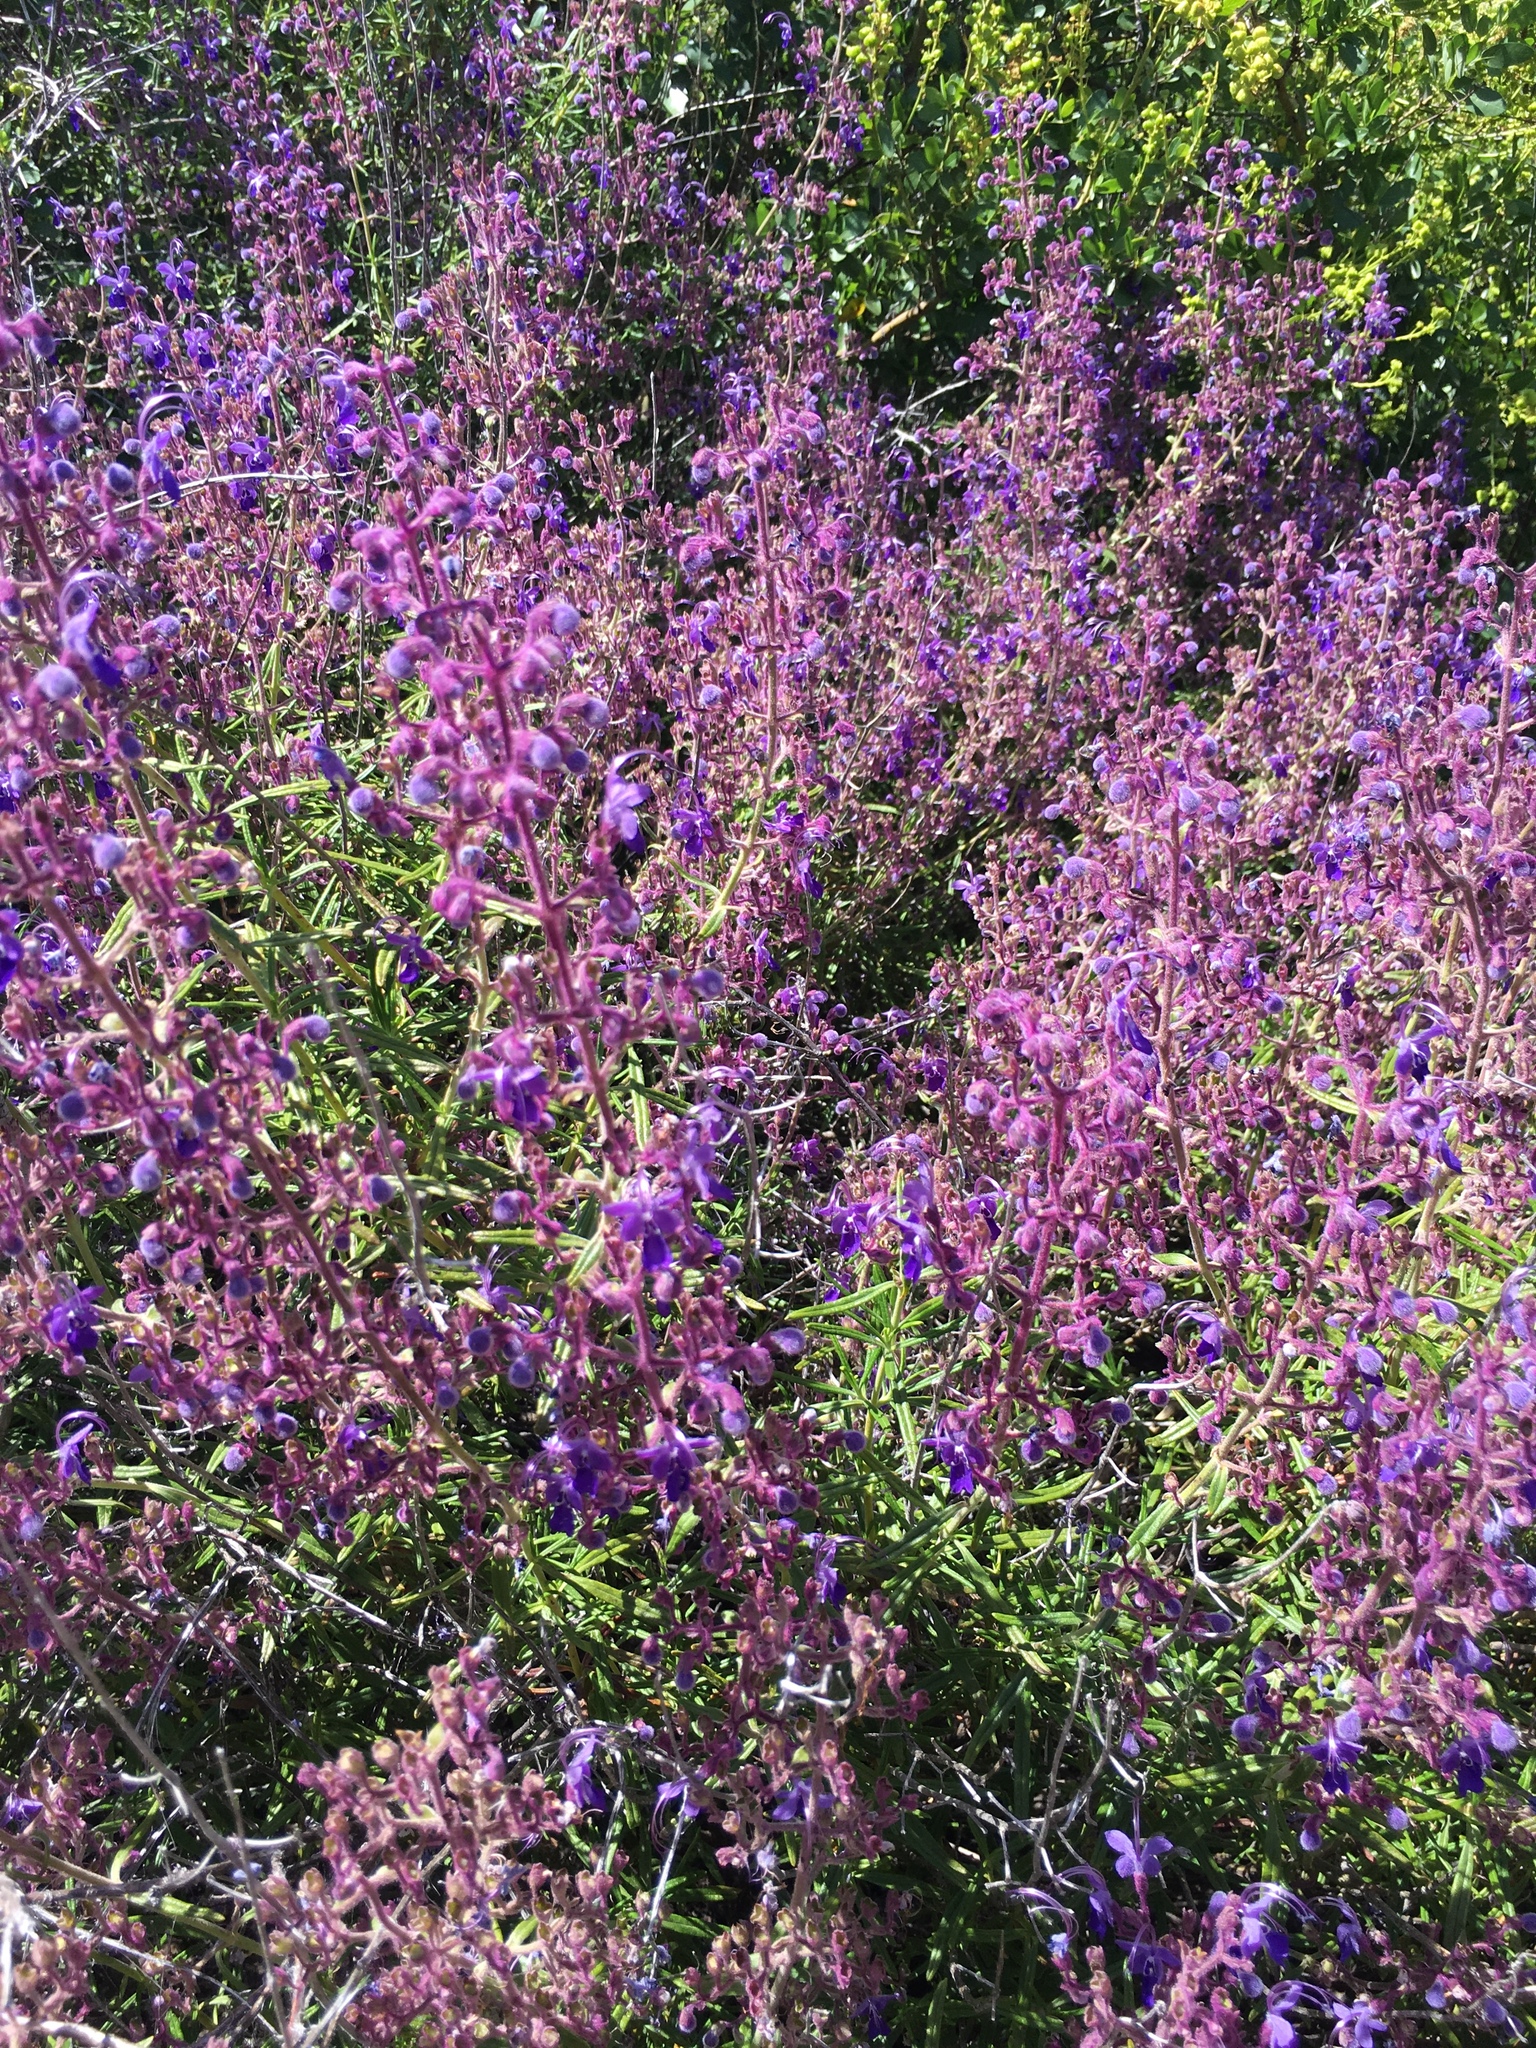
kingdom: Plantae
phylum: Tracheophyta
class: Magnoliopsida
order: Lamiales
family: Lamiaceae
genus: Trichostema
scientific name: Trichostema parishii
